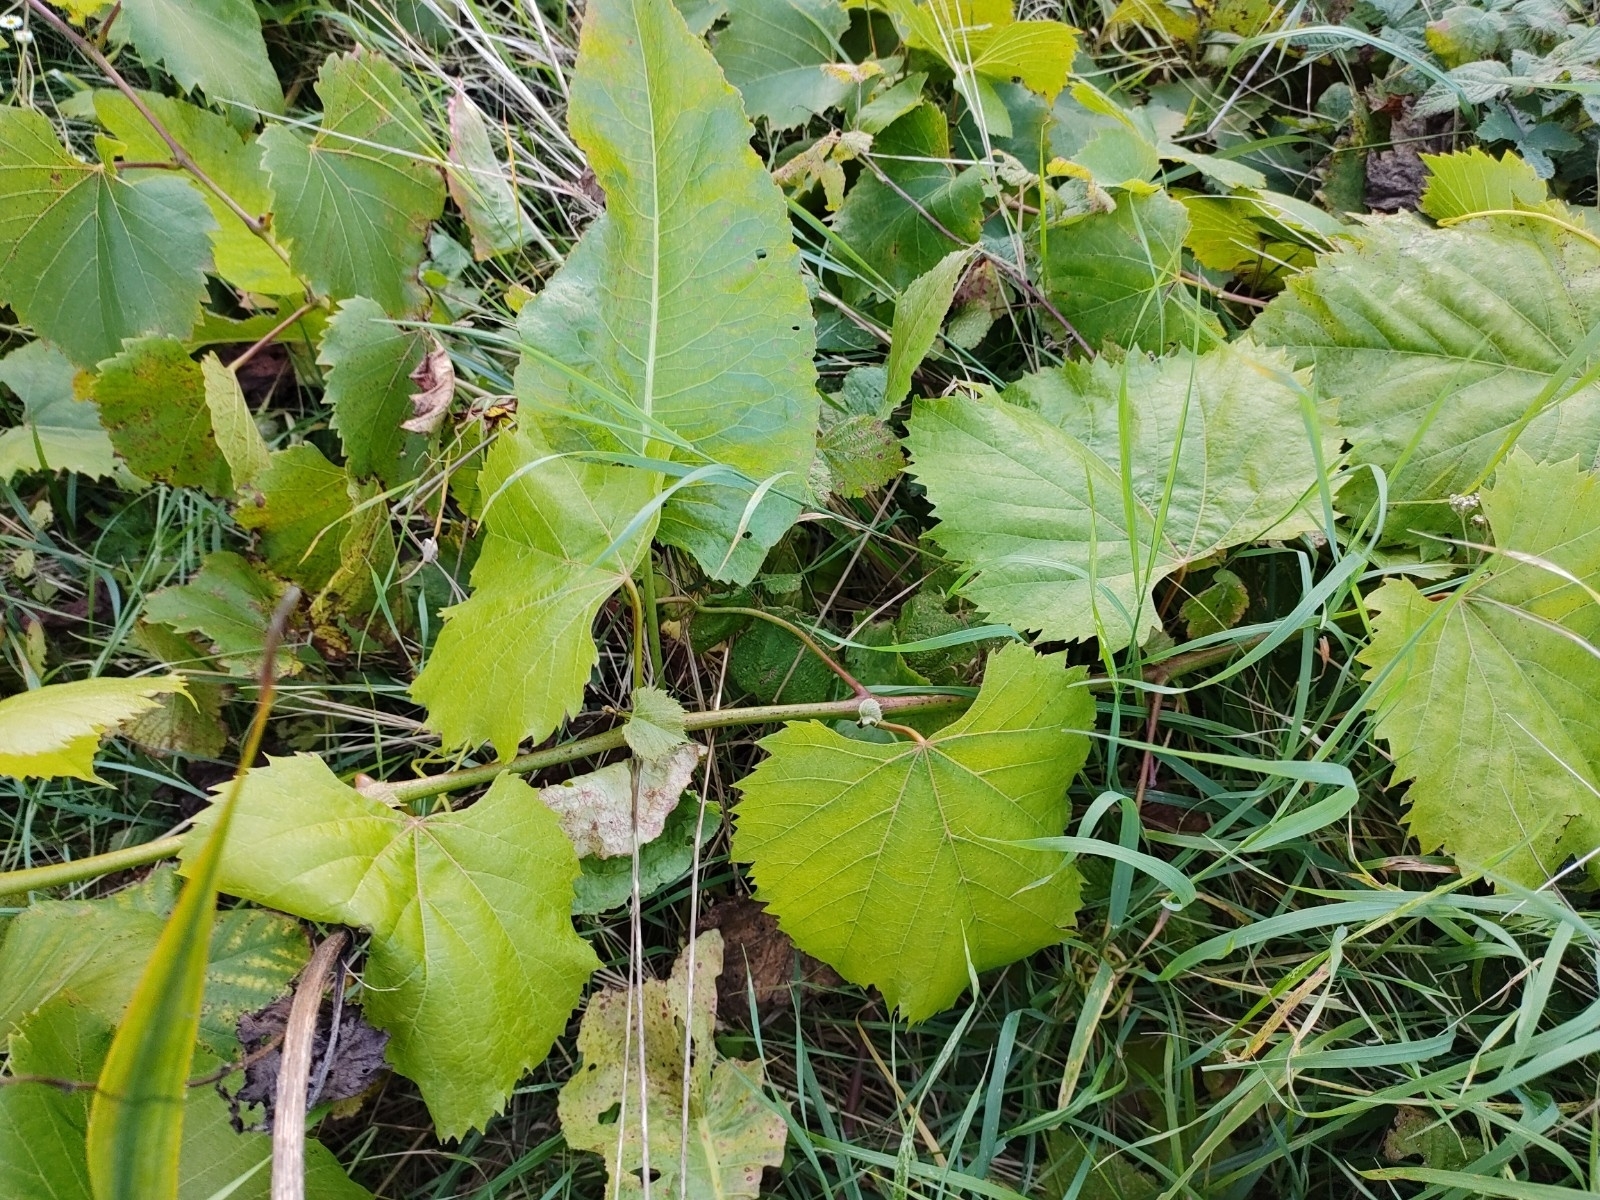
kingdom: Plantae
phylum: Tracheophyta
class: Magnoliopsida
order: Vitales
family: Vitaceae
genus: Vitis
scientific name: Vitis vinifera
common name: Grape-vine
